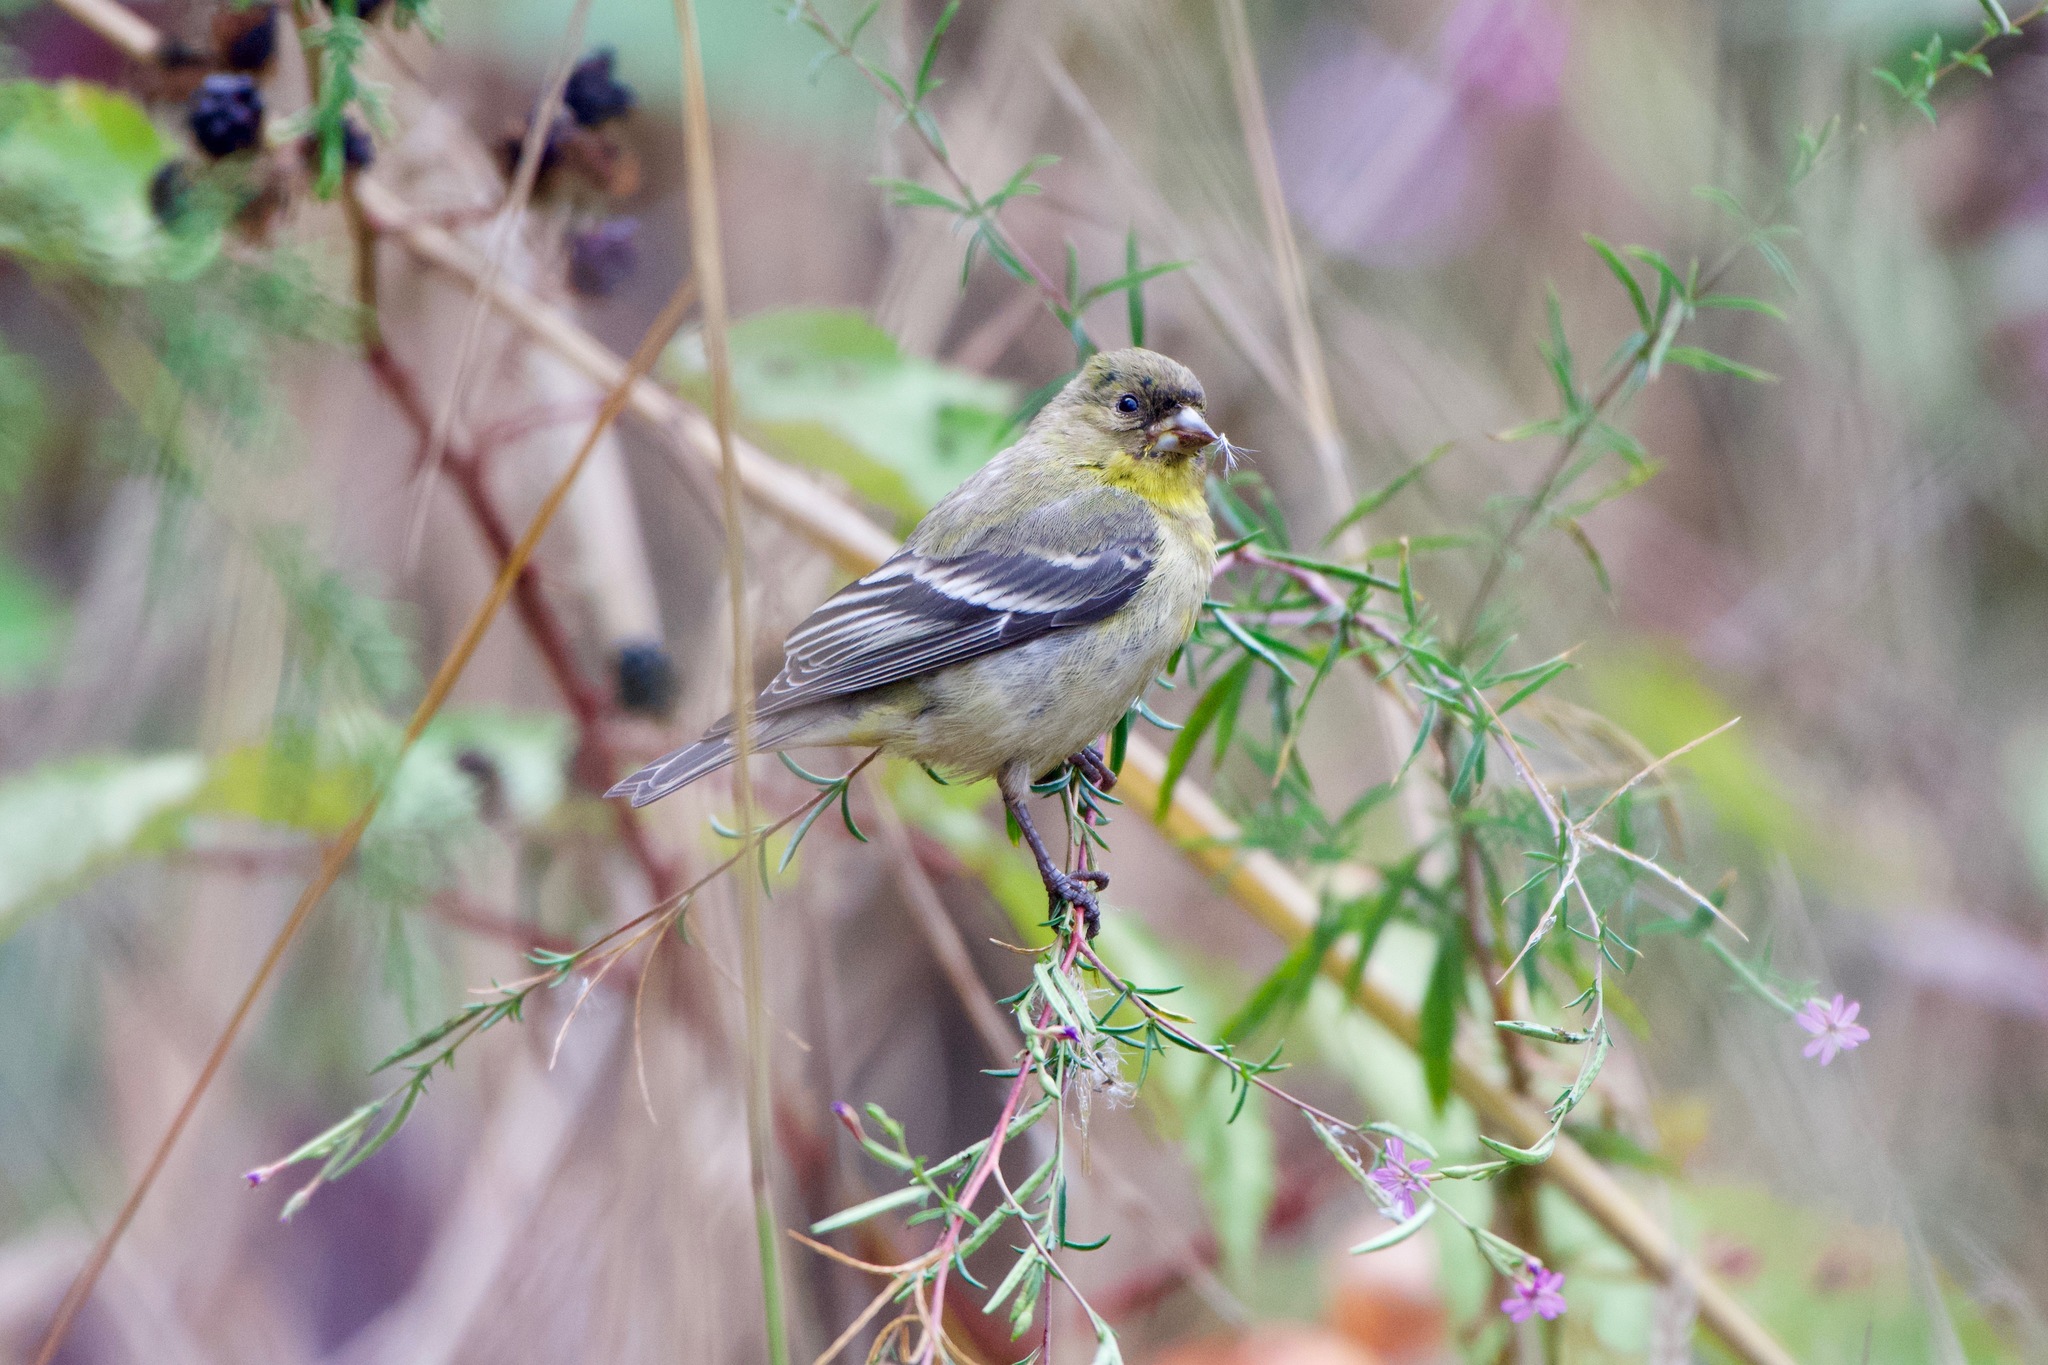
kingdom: Animalia
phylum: Chordata
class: Aves
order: Passeriformes
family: Fringillidae
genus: Spinus
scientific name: Spinus psaltria
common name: Lesser goldfinch
